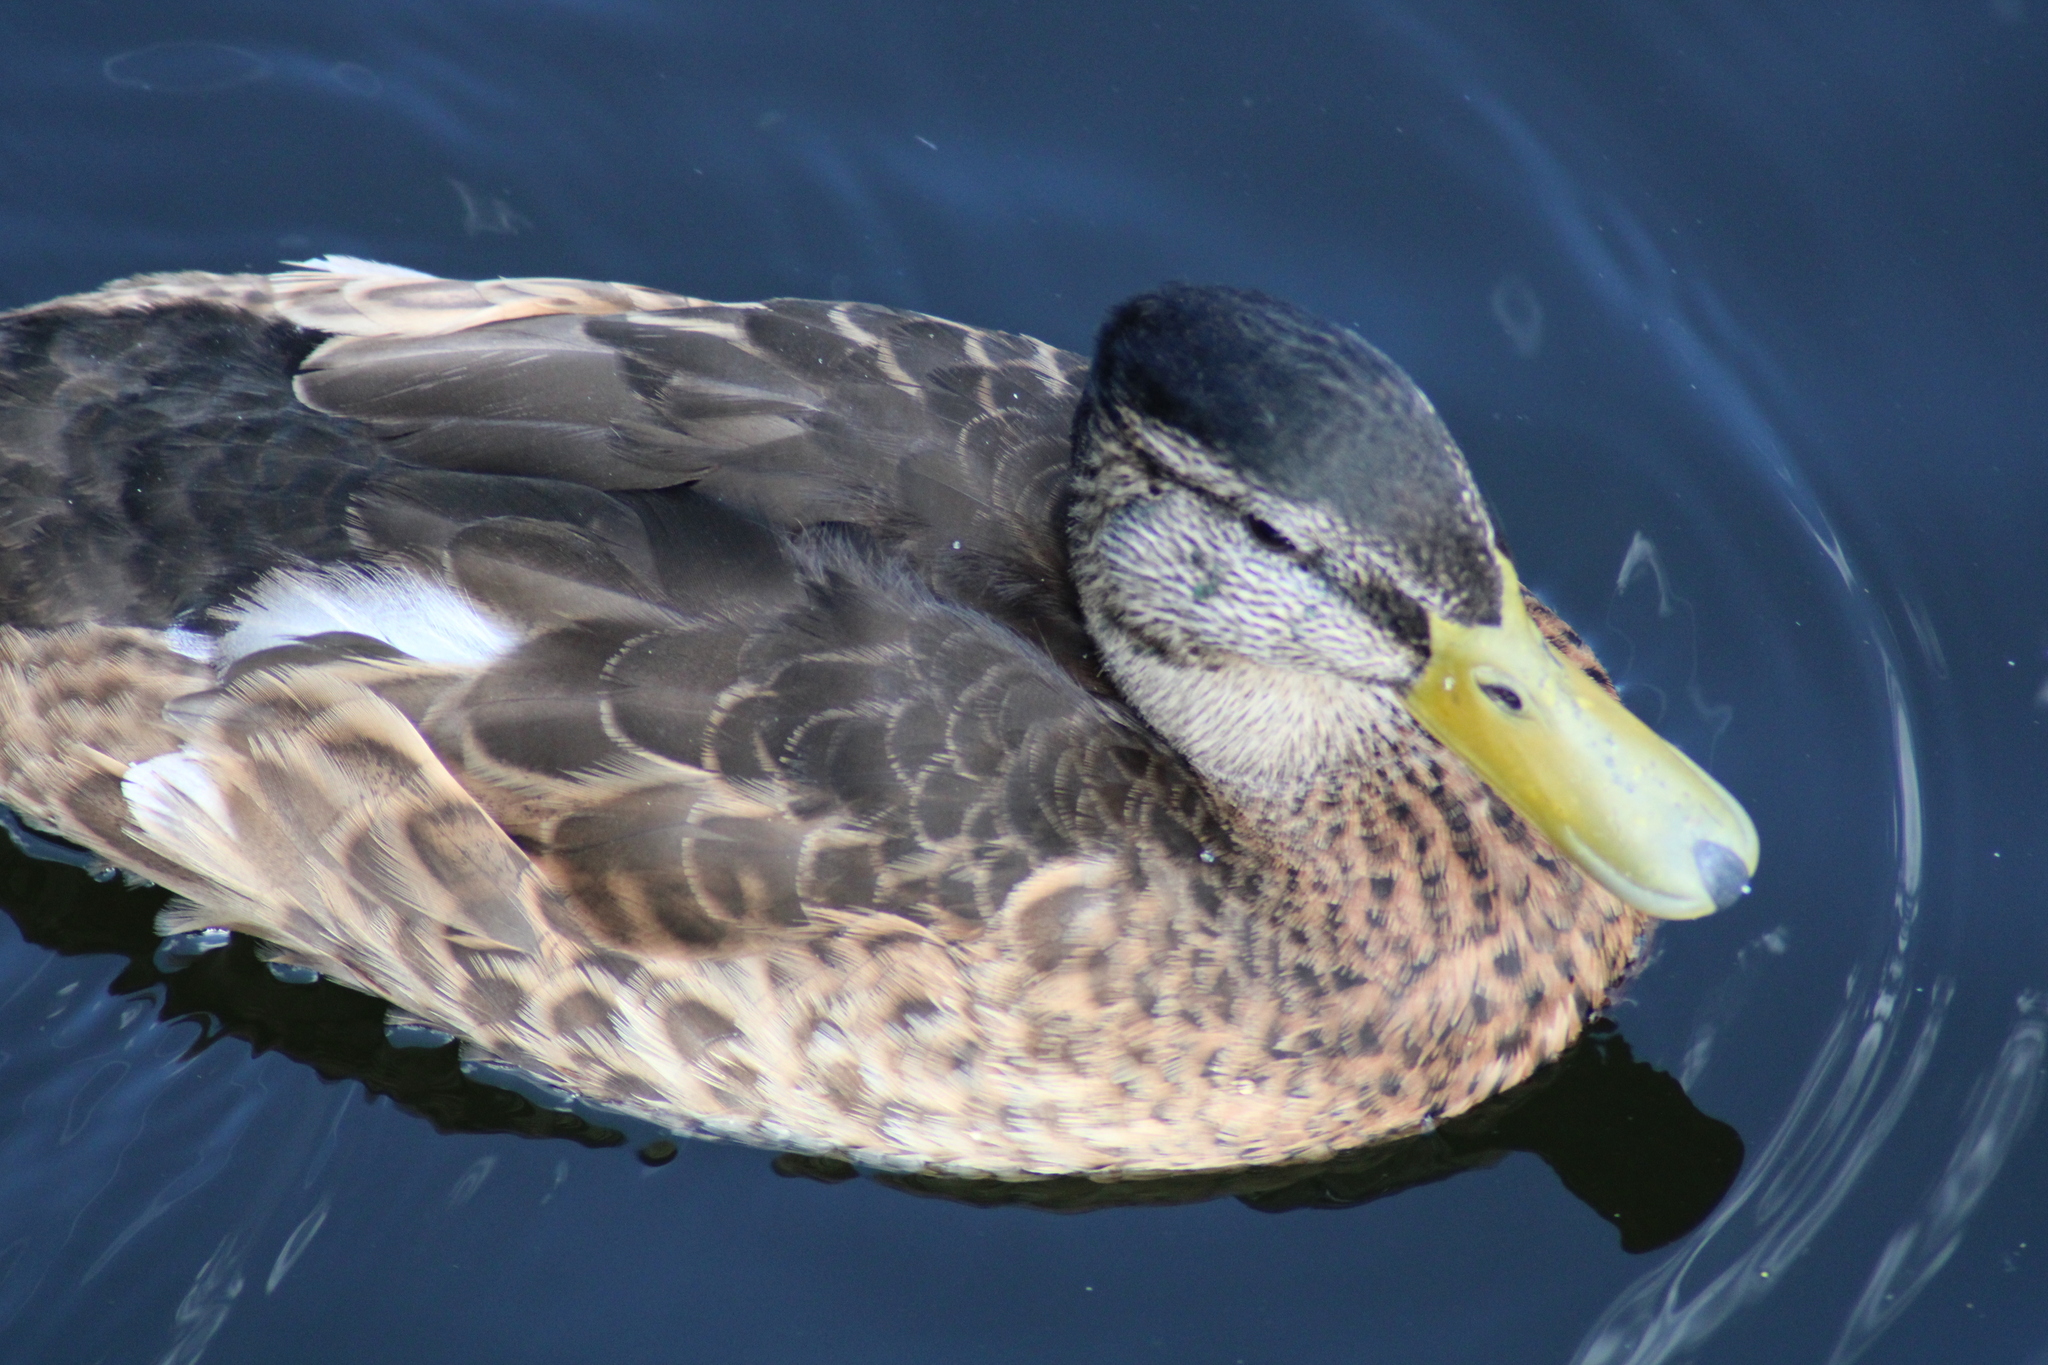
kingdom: Animalia
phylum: Chordata
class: Aves
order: Anseriformes
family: Anatidae
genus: Anas
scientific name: Anas platyrhynchos
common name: Mallard
